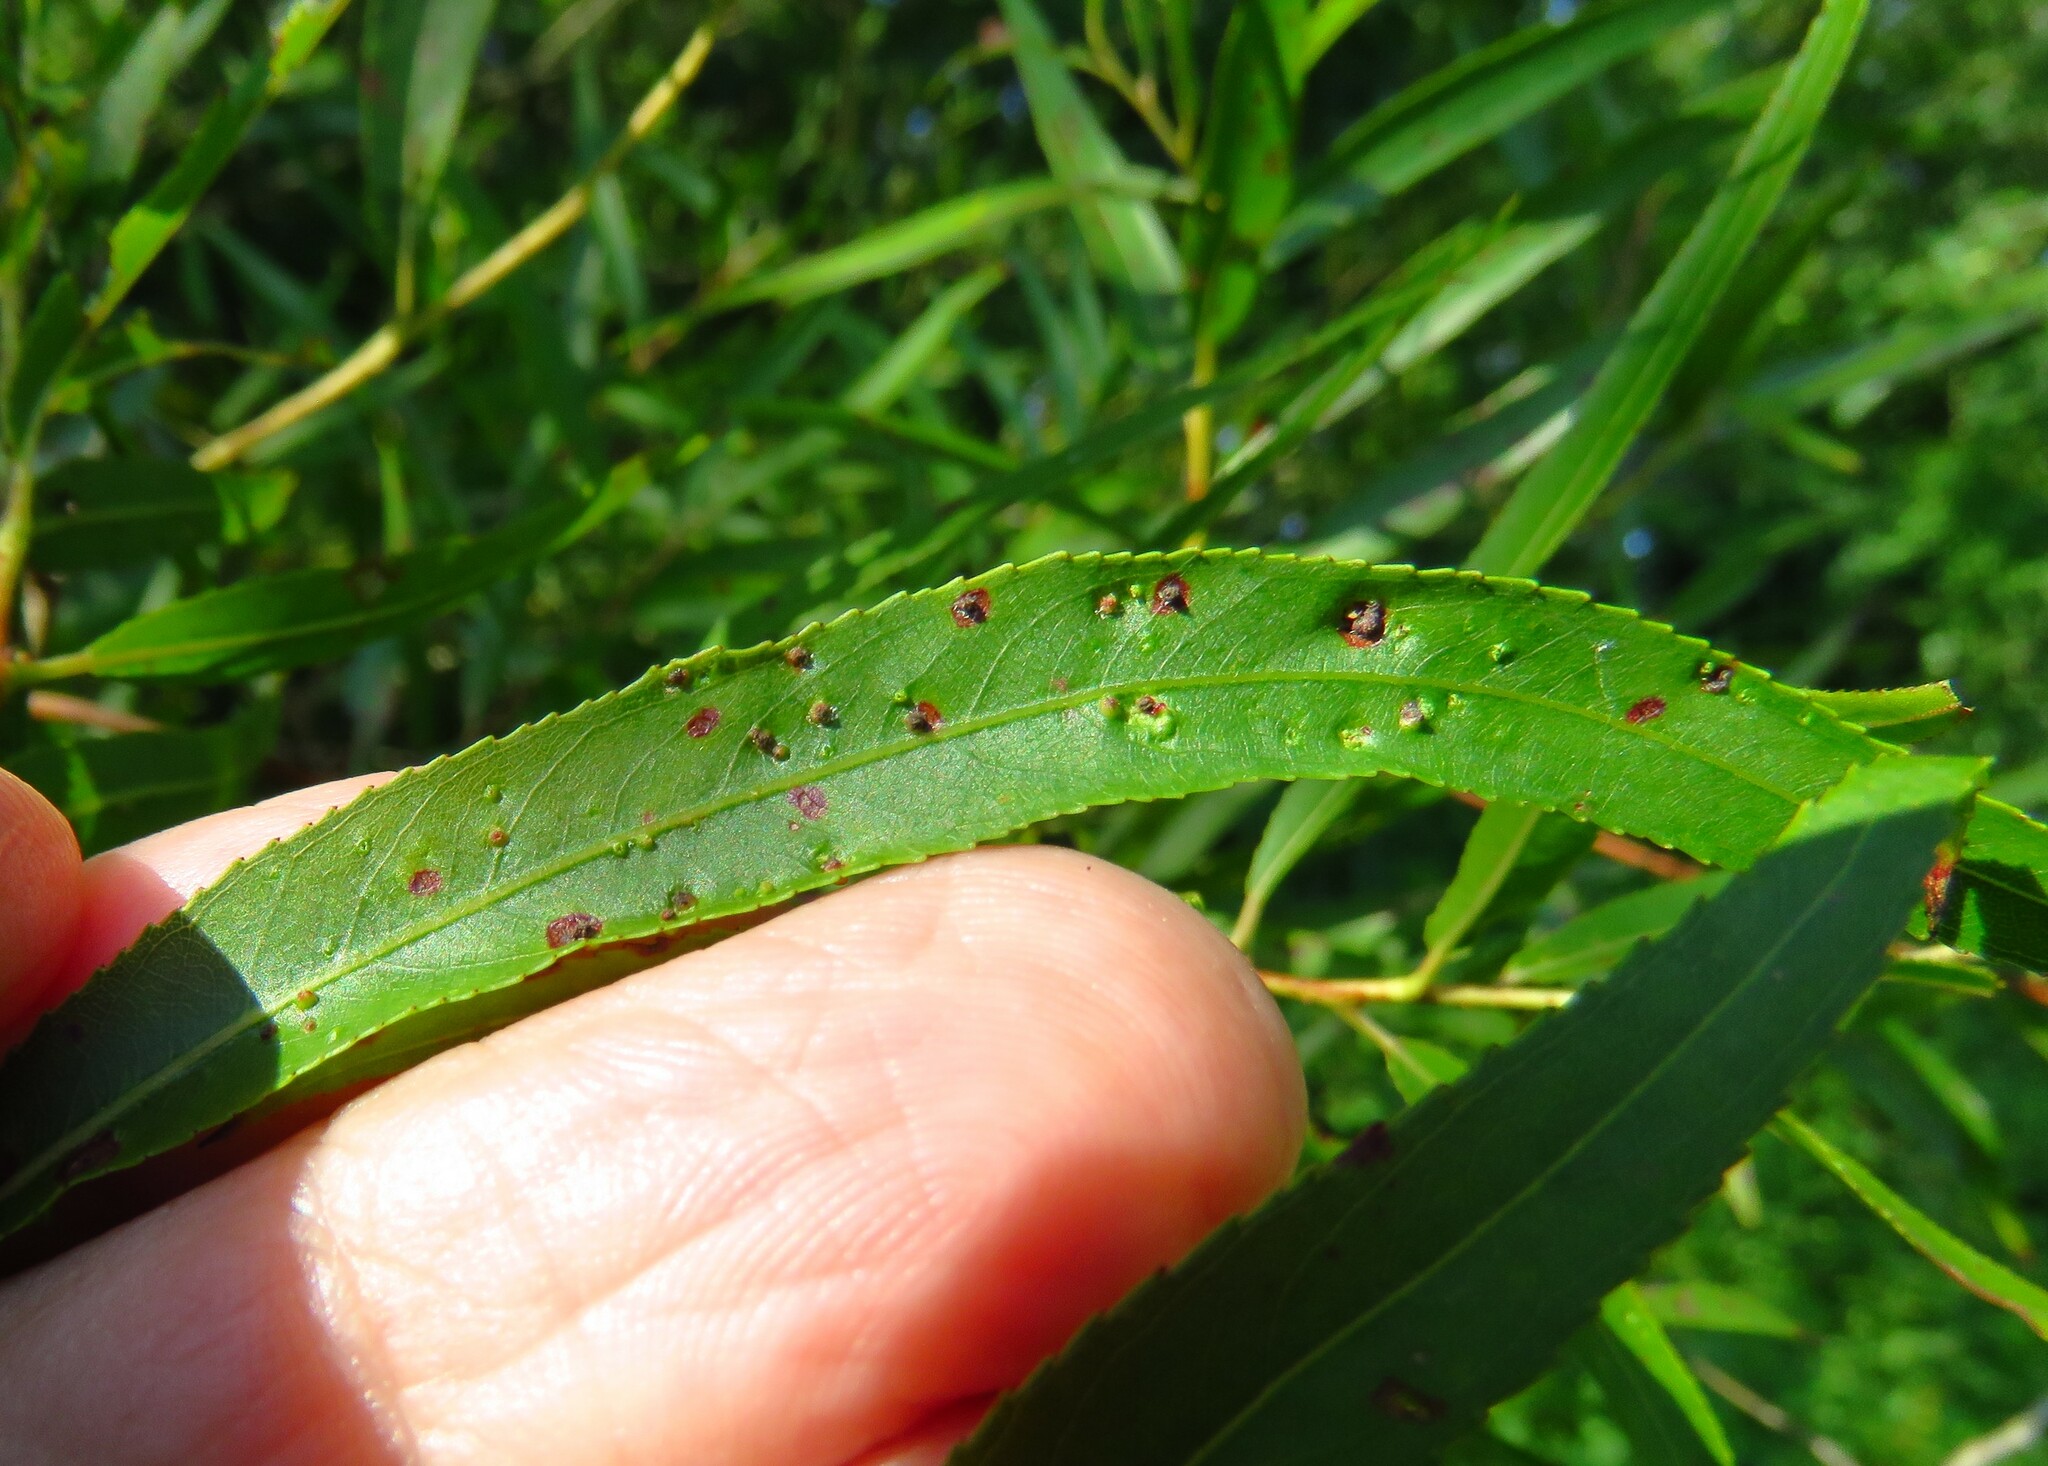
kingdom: Animalia
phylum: Arthropoda
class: Arachnida
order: Trombidiformes
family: Eriophyidae
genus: Aculus
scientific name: Aculus tetanothrix
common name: Willow bead gall mite
